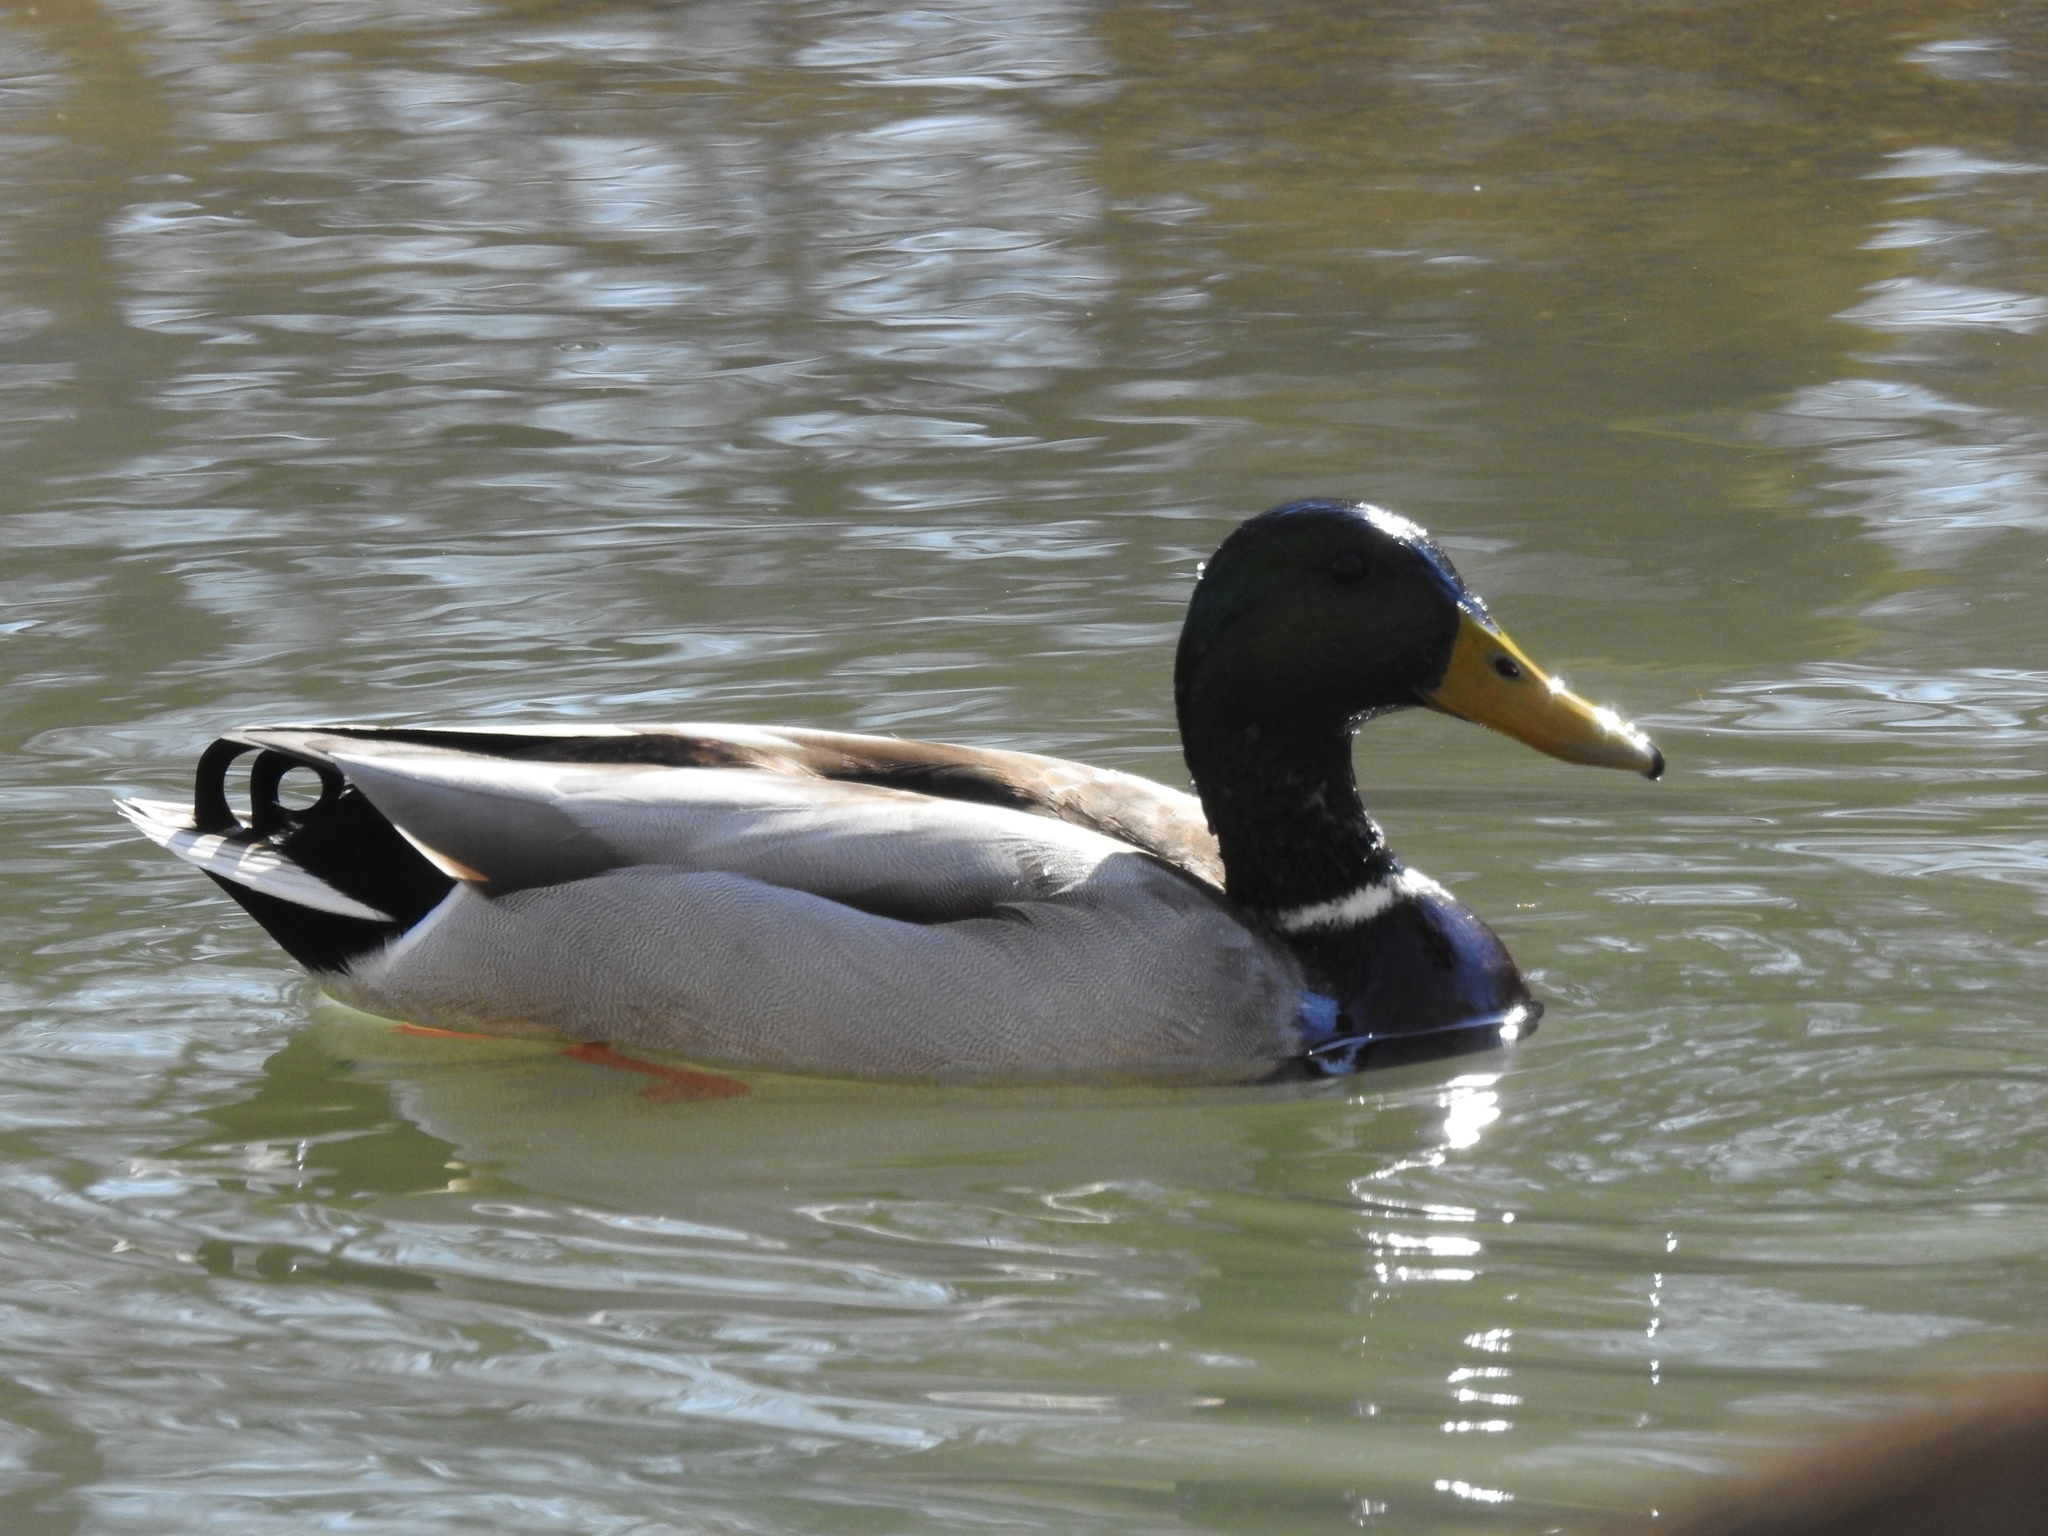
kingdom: Animalia
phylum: Chordata
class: Aves
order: Anseriformes
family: Anatidae
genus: Anas
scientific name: Anas platyrhynchos
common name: Mallard
